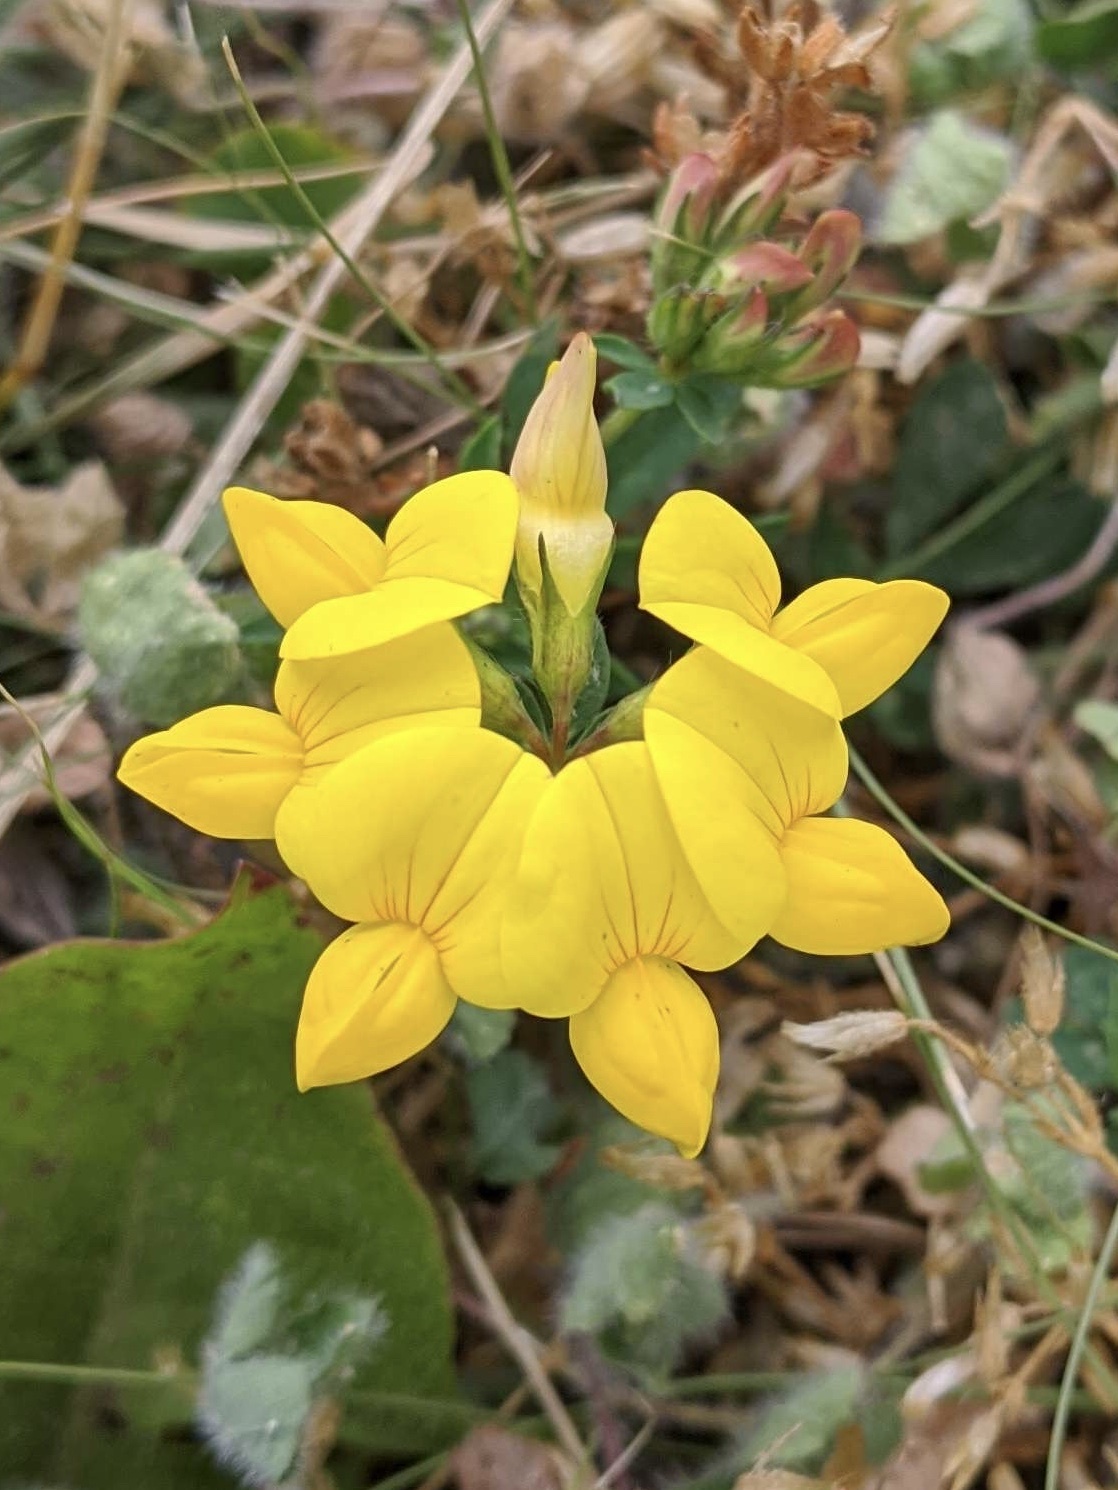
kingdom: Plantae
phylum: Tracheophyta
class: Magnoliopsida
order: Fabales
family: Fabaceae
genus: Lotus
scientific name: Lotus corniculatus
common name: Common bird's-foot-trefoil
